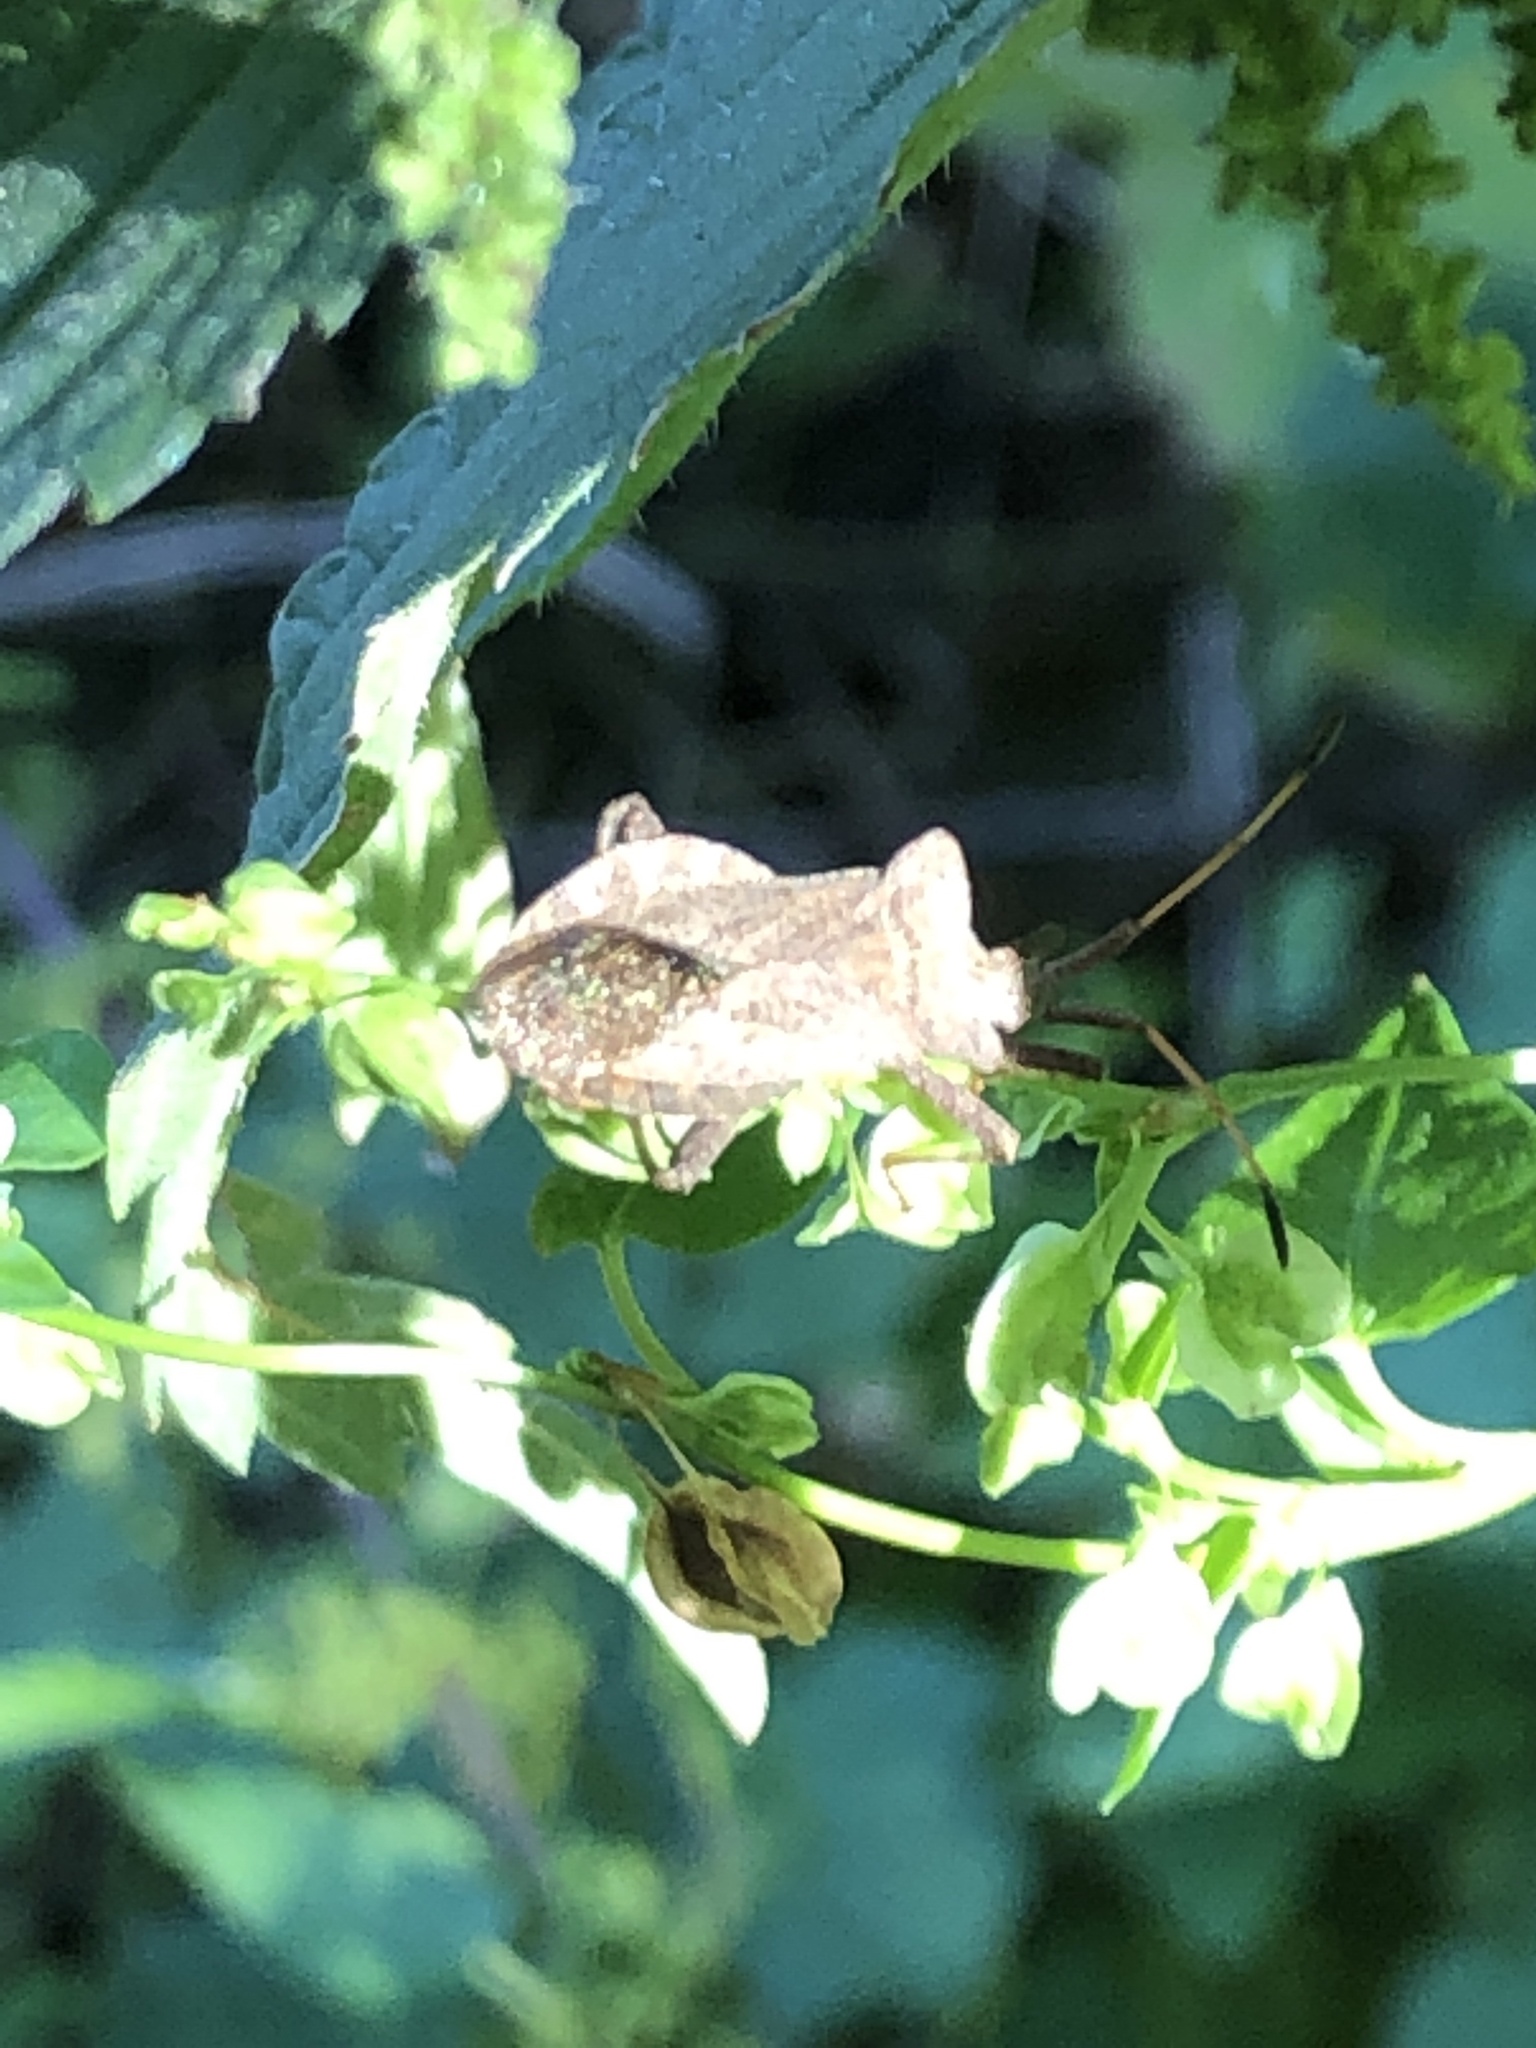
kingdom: Animalia
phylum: Arthropoda
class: Insecta
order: Hemiptera
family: Coreidae
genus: Coreus
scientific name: Coreus marginatus
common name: Dock bug
